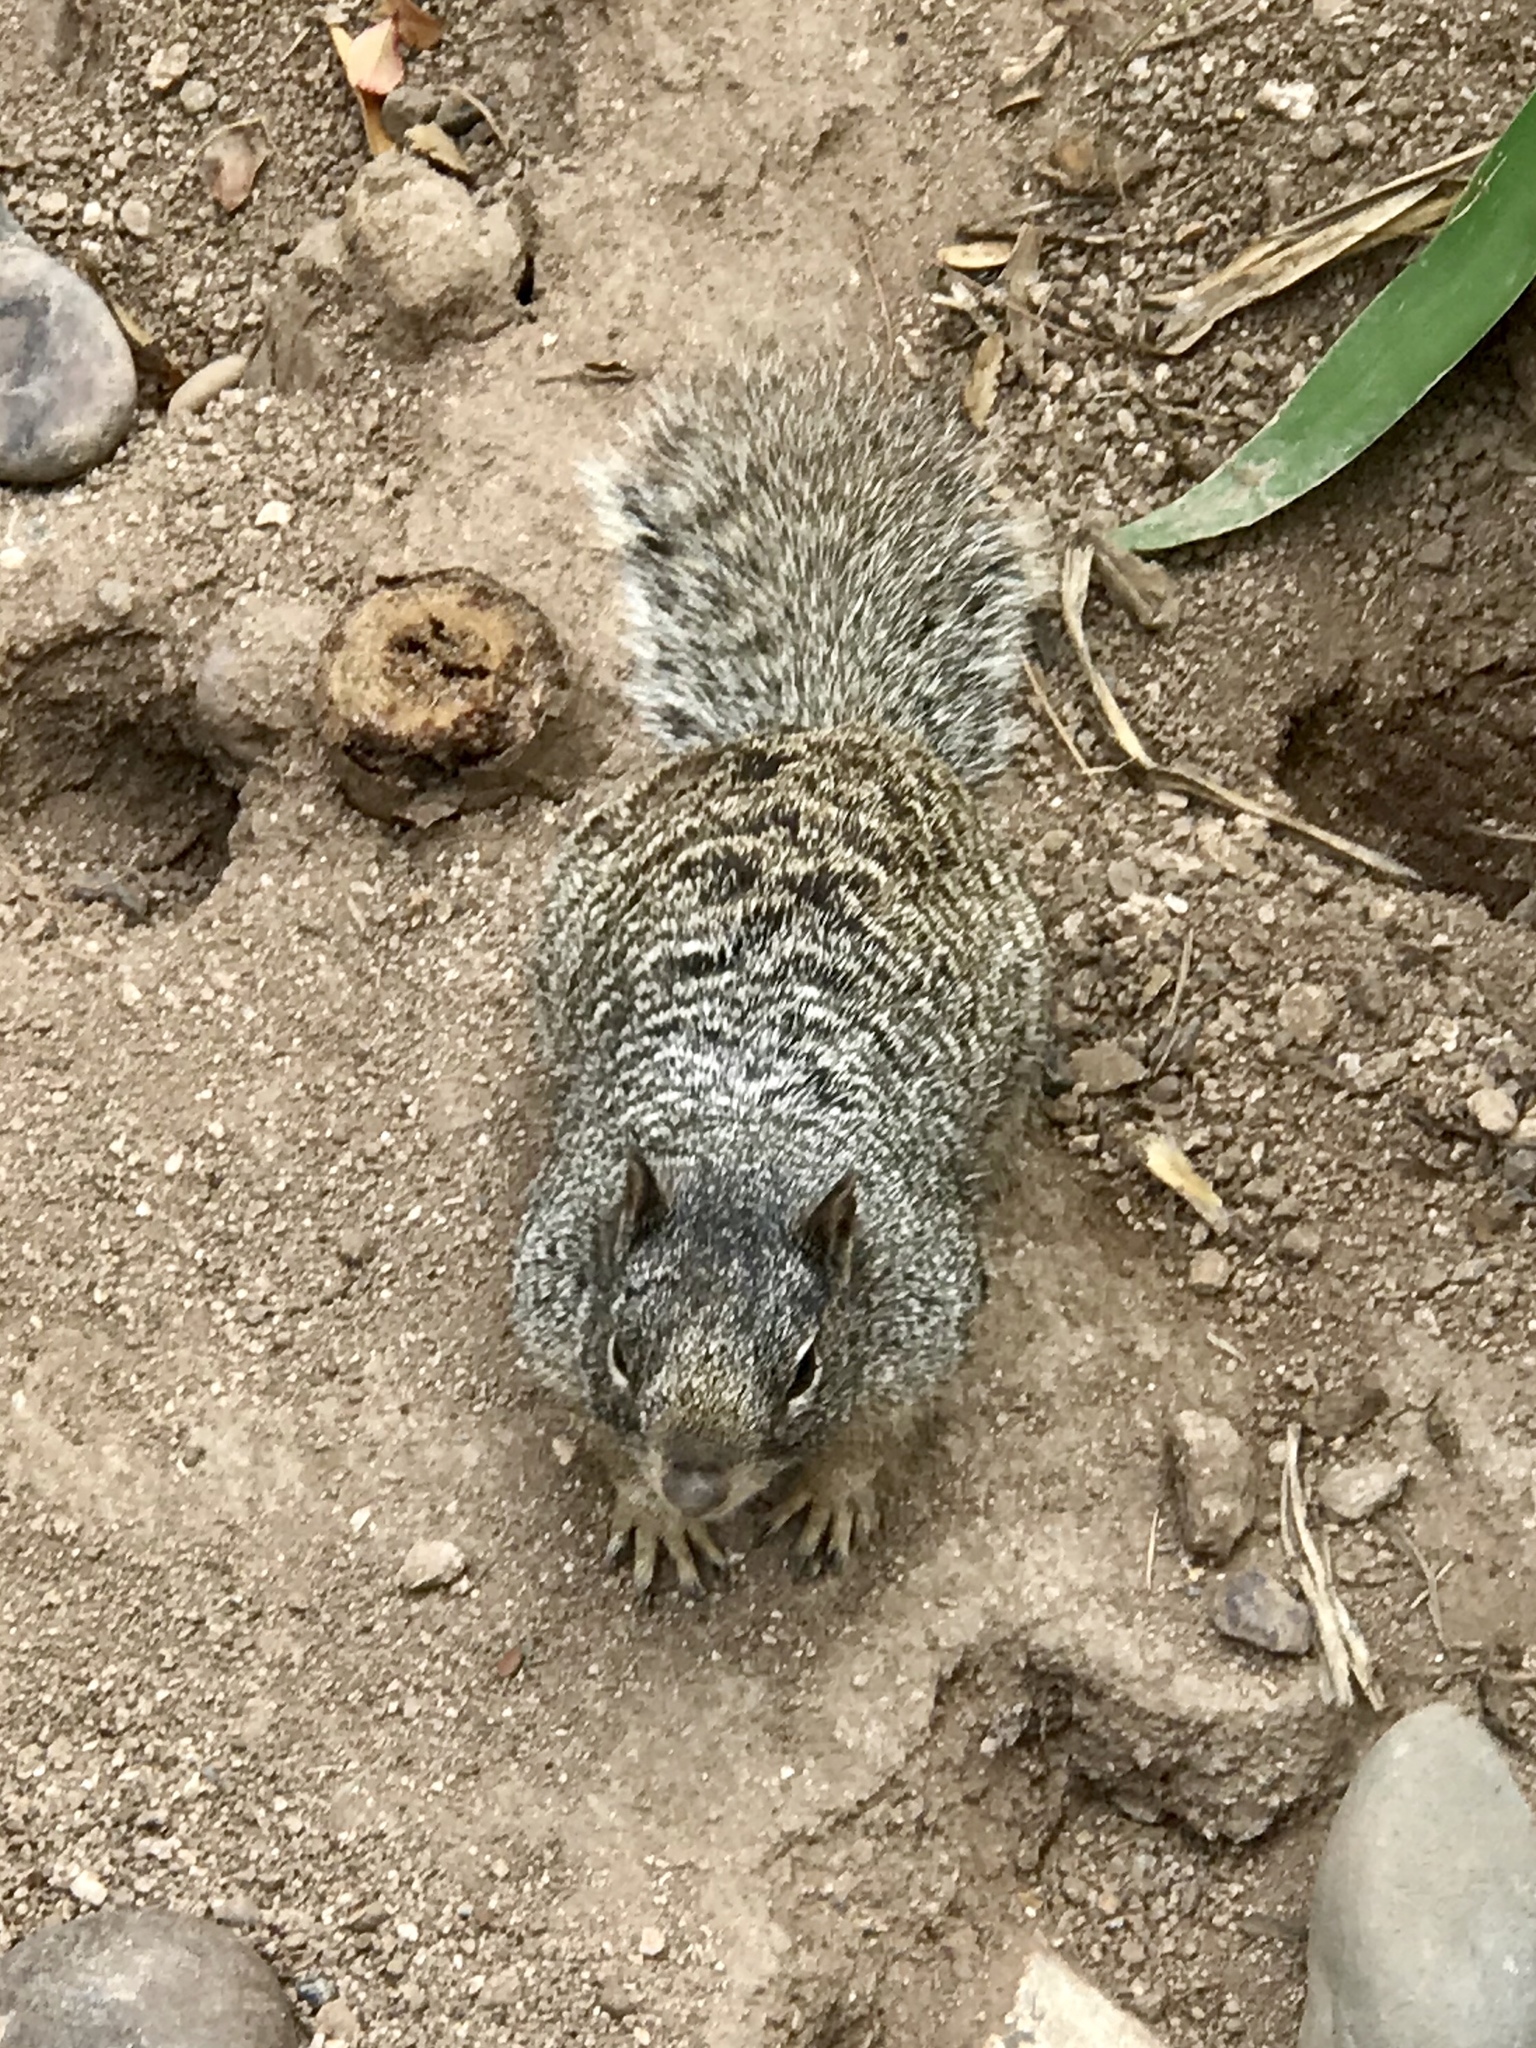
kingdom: Animalia
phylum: Chordata
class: Mammalia
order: Rodentia
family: Sciuridae
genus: Otospermophilus
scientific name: Otospermophilus variegatus
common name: Rock squirrel
